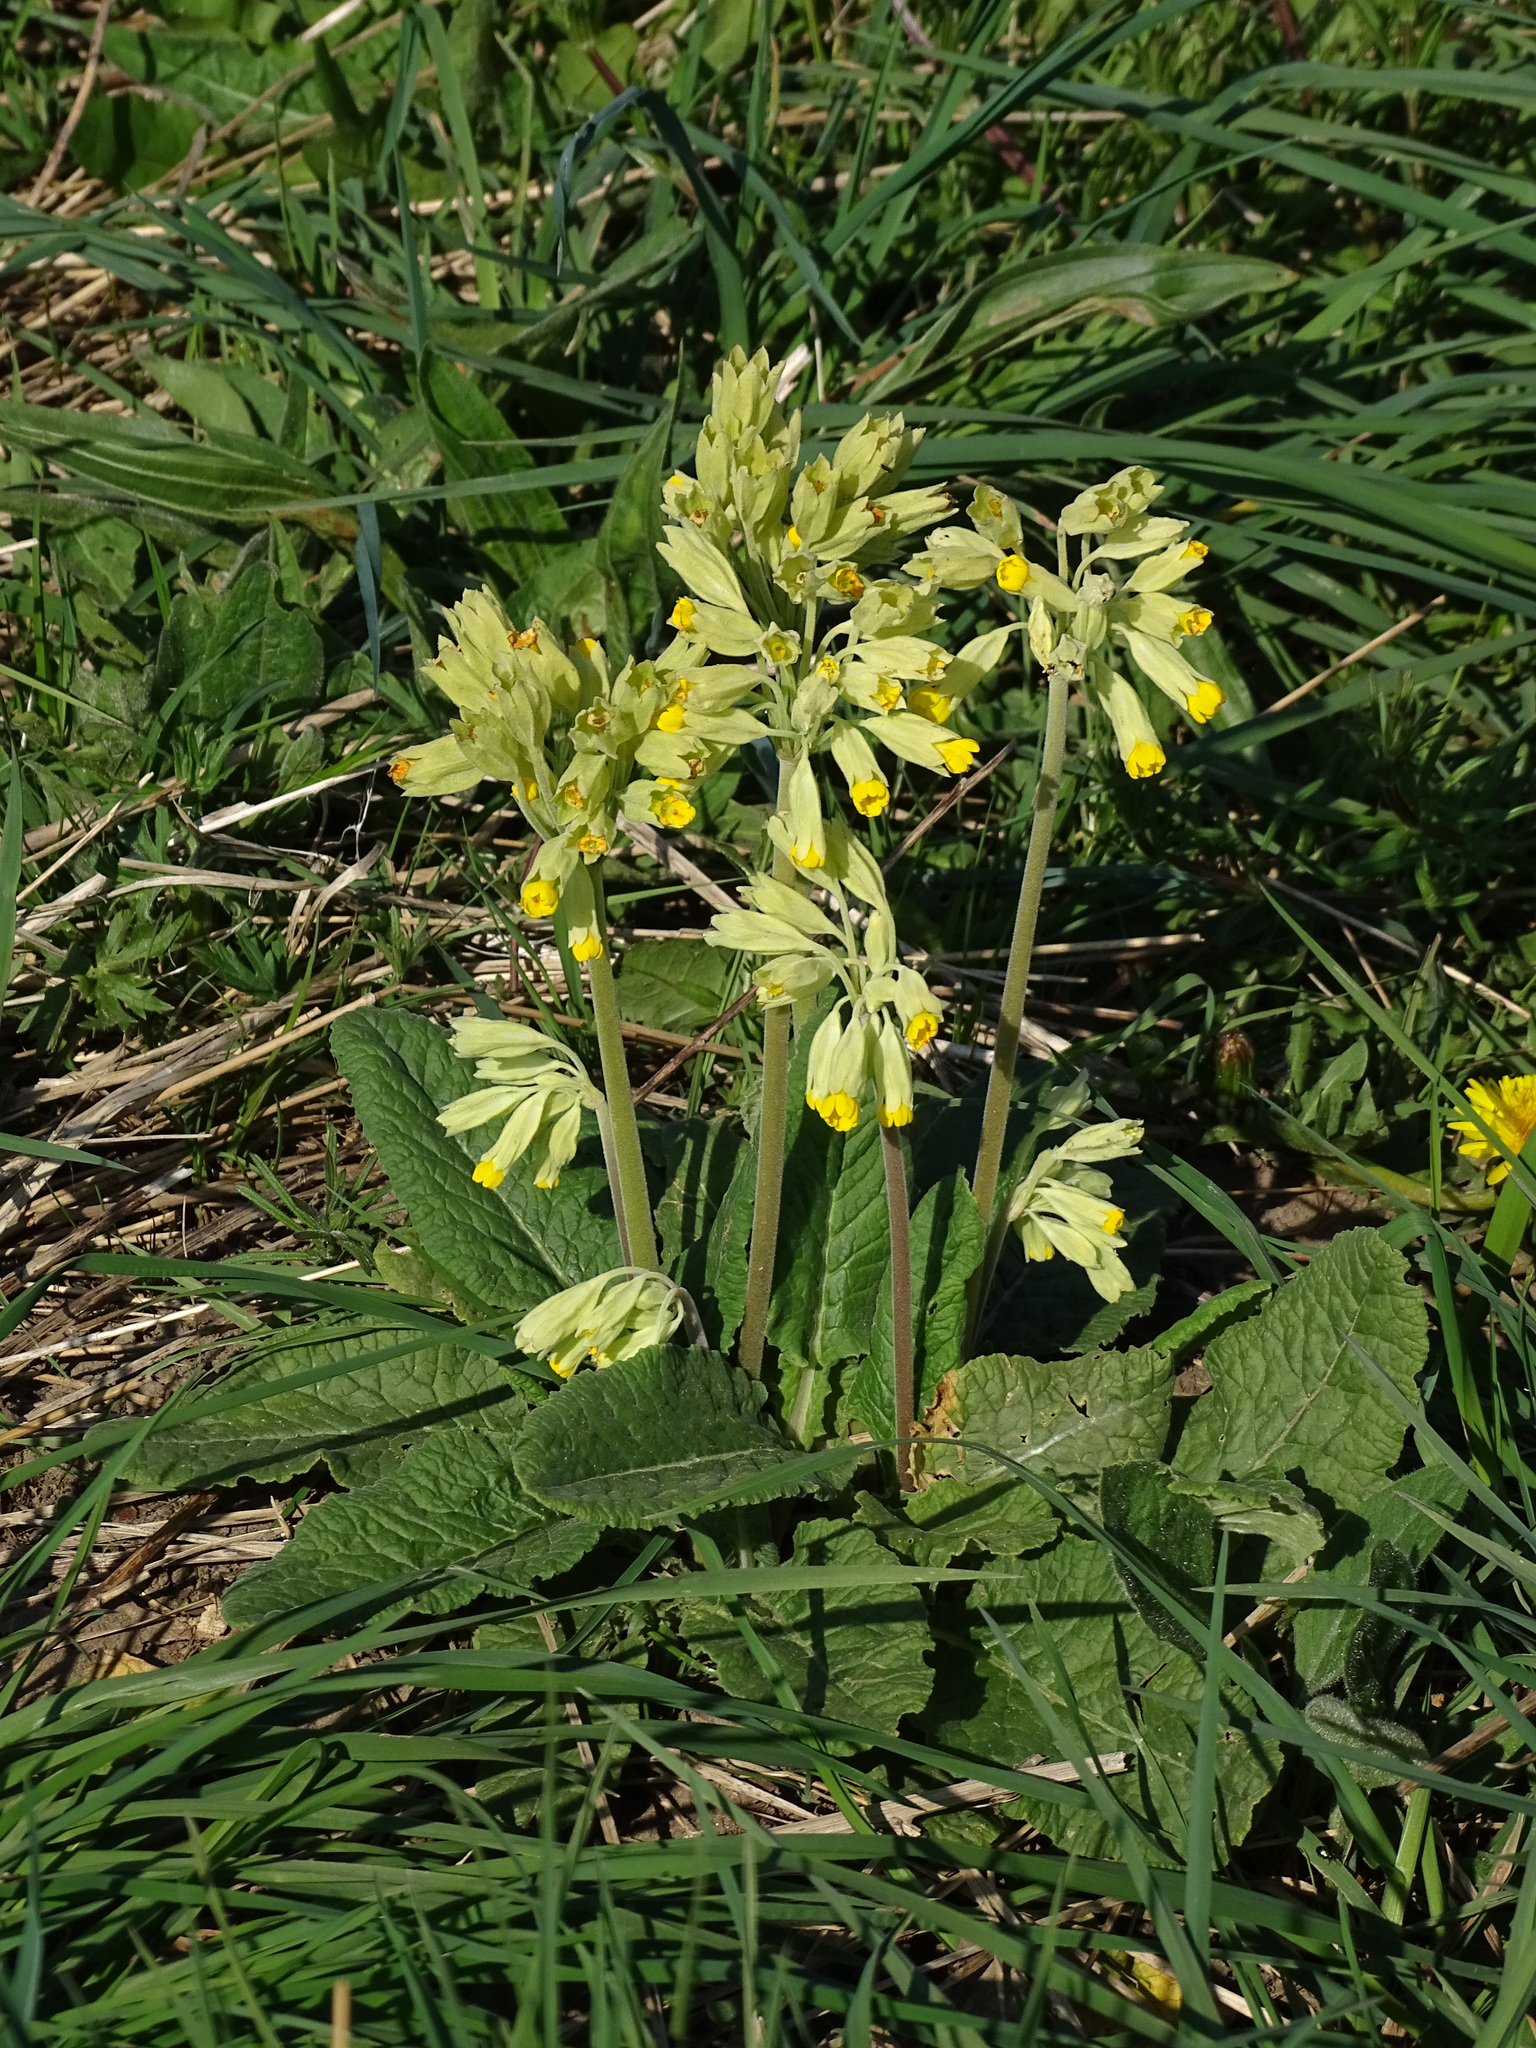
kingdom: Plantae
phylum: Tracheophyta
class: Magnoliopsida
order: Ericales
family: Primulaceae
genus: Primula
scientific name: Primula veris
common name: Cowslip
